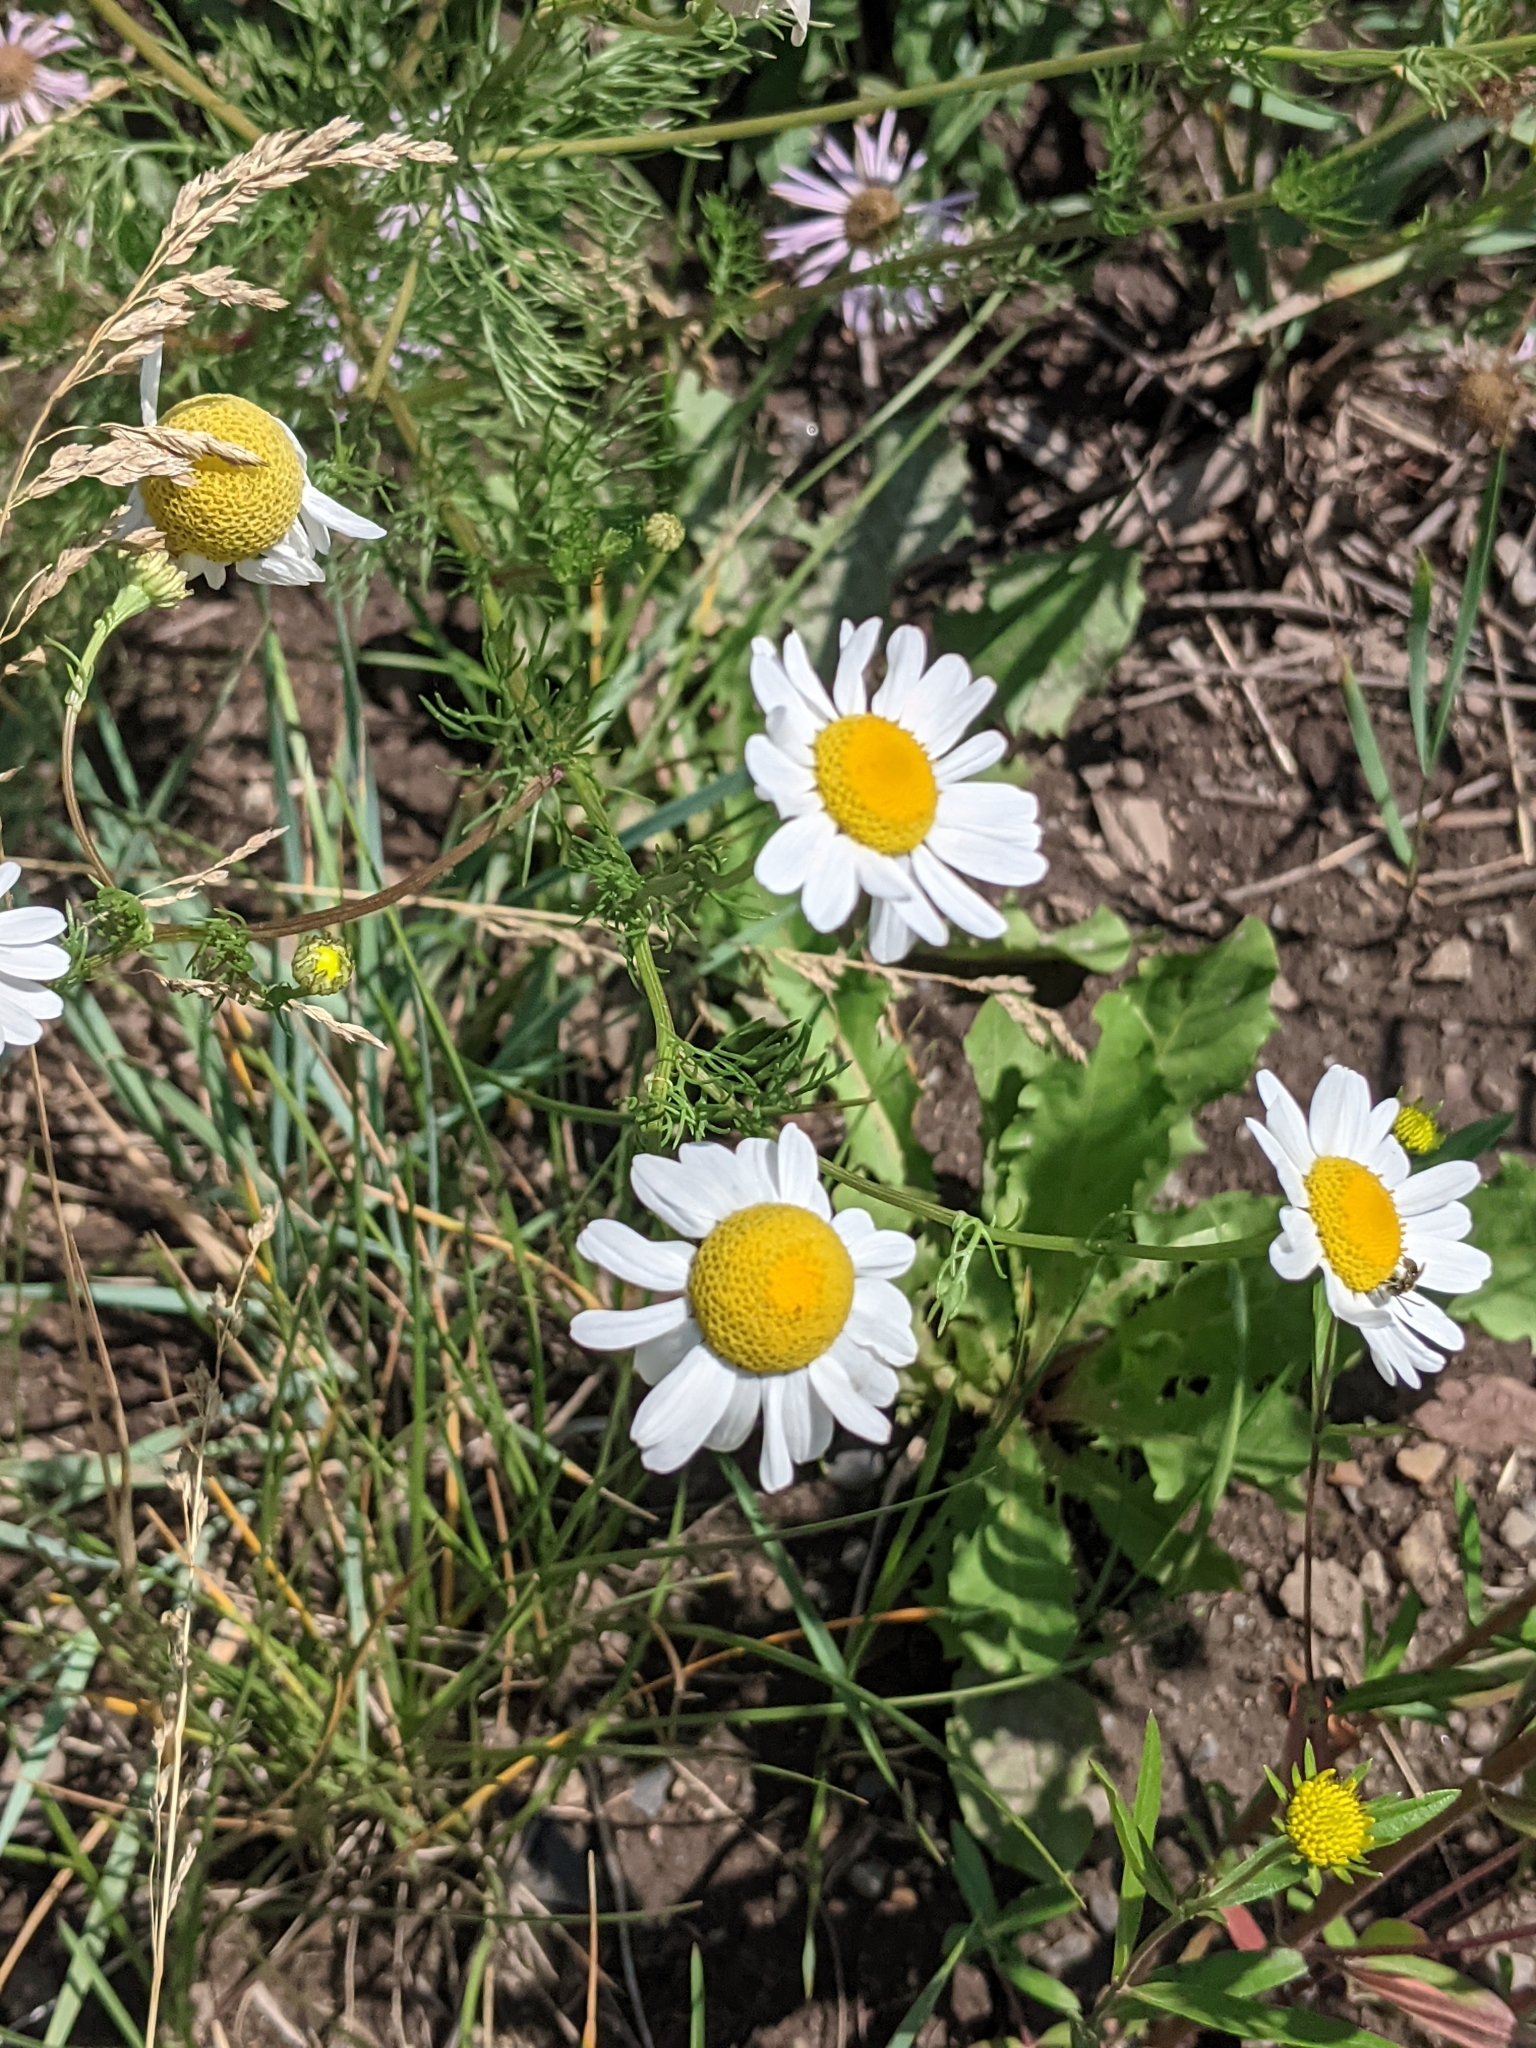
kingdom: Plantae
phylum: Tracheophyta
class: Magnoliopsida
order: Asterales
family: Asteraceae
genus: Tripleurospermum
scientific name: Tripleurospermum inodorum
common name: Scentless mayweed
